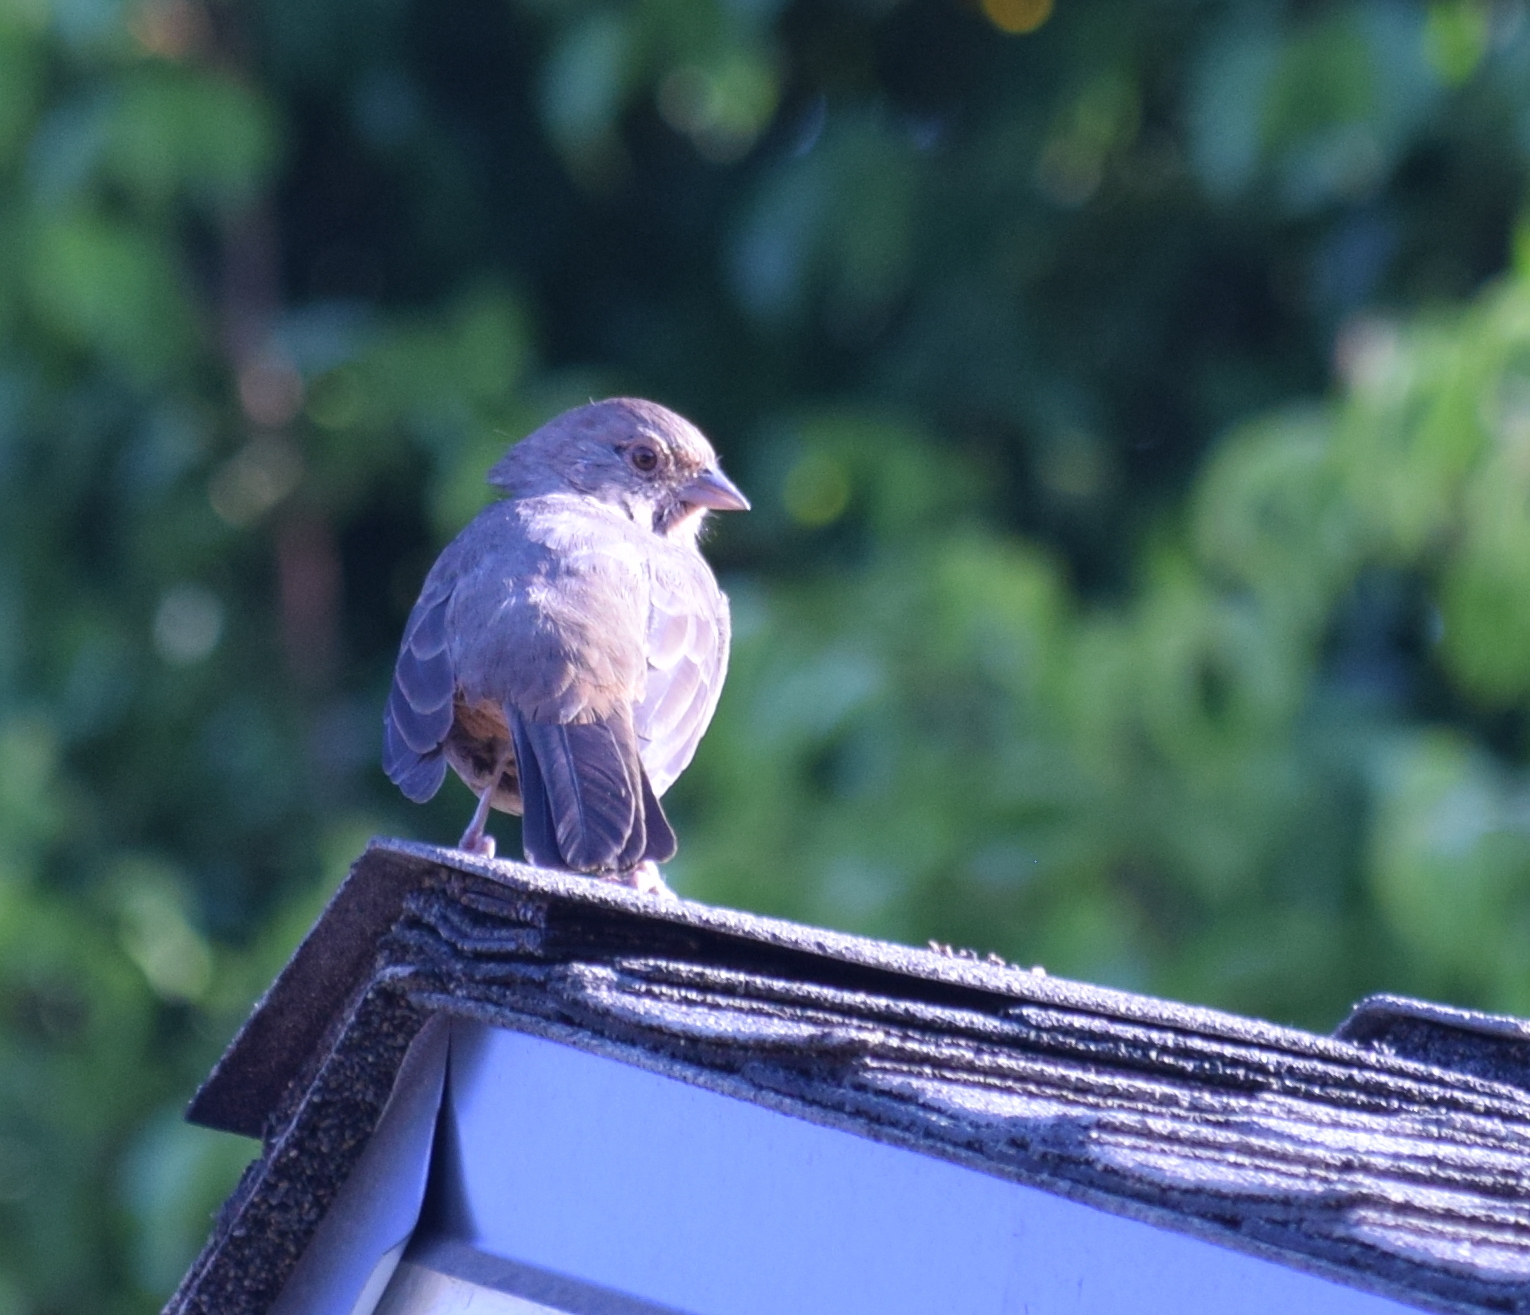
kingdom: Animalia
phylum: Chordata
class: Aves
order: Passeriformes
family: Passerellidae
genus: Melozone
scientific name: Melozone crissalis
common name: California towhee
